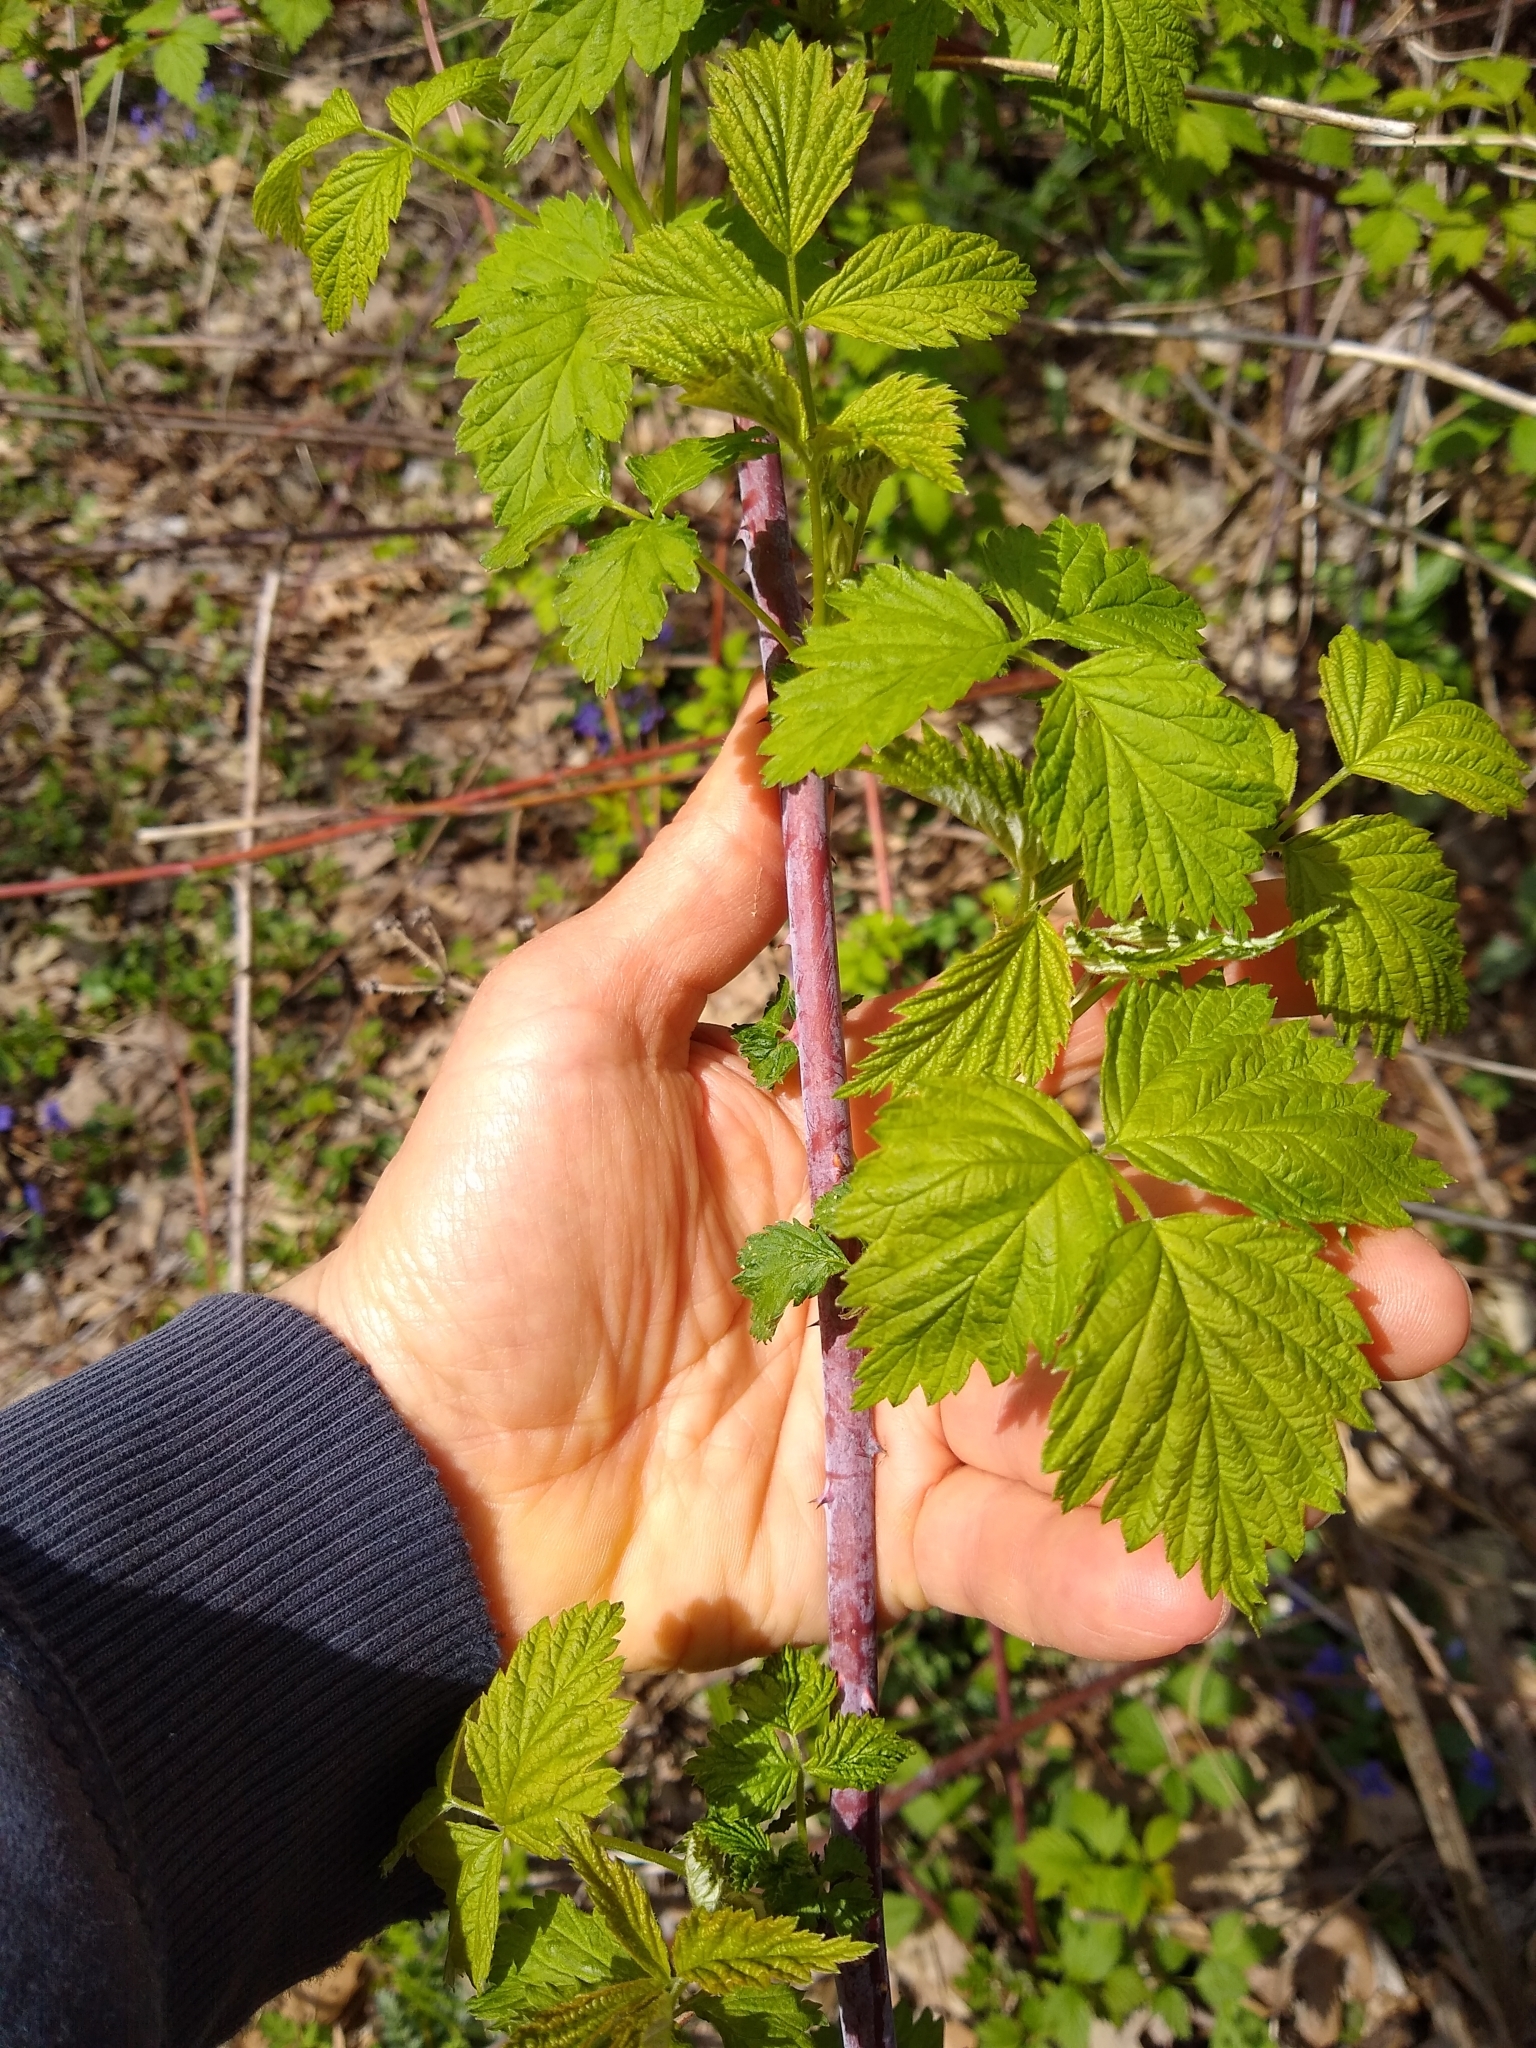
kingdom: Plantae
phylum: Tracheophyta
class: Magnoliopsida
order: Rosales
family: Rosaceae
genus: Rubus
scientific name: Rubus occidentalis
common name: Black raspberry
